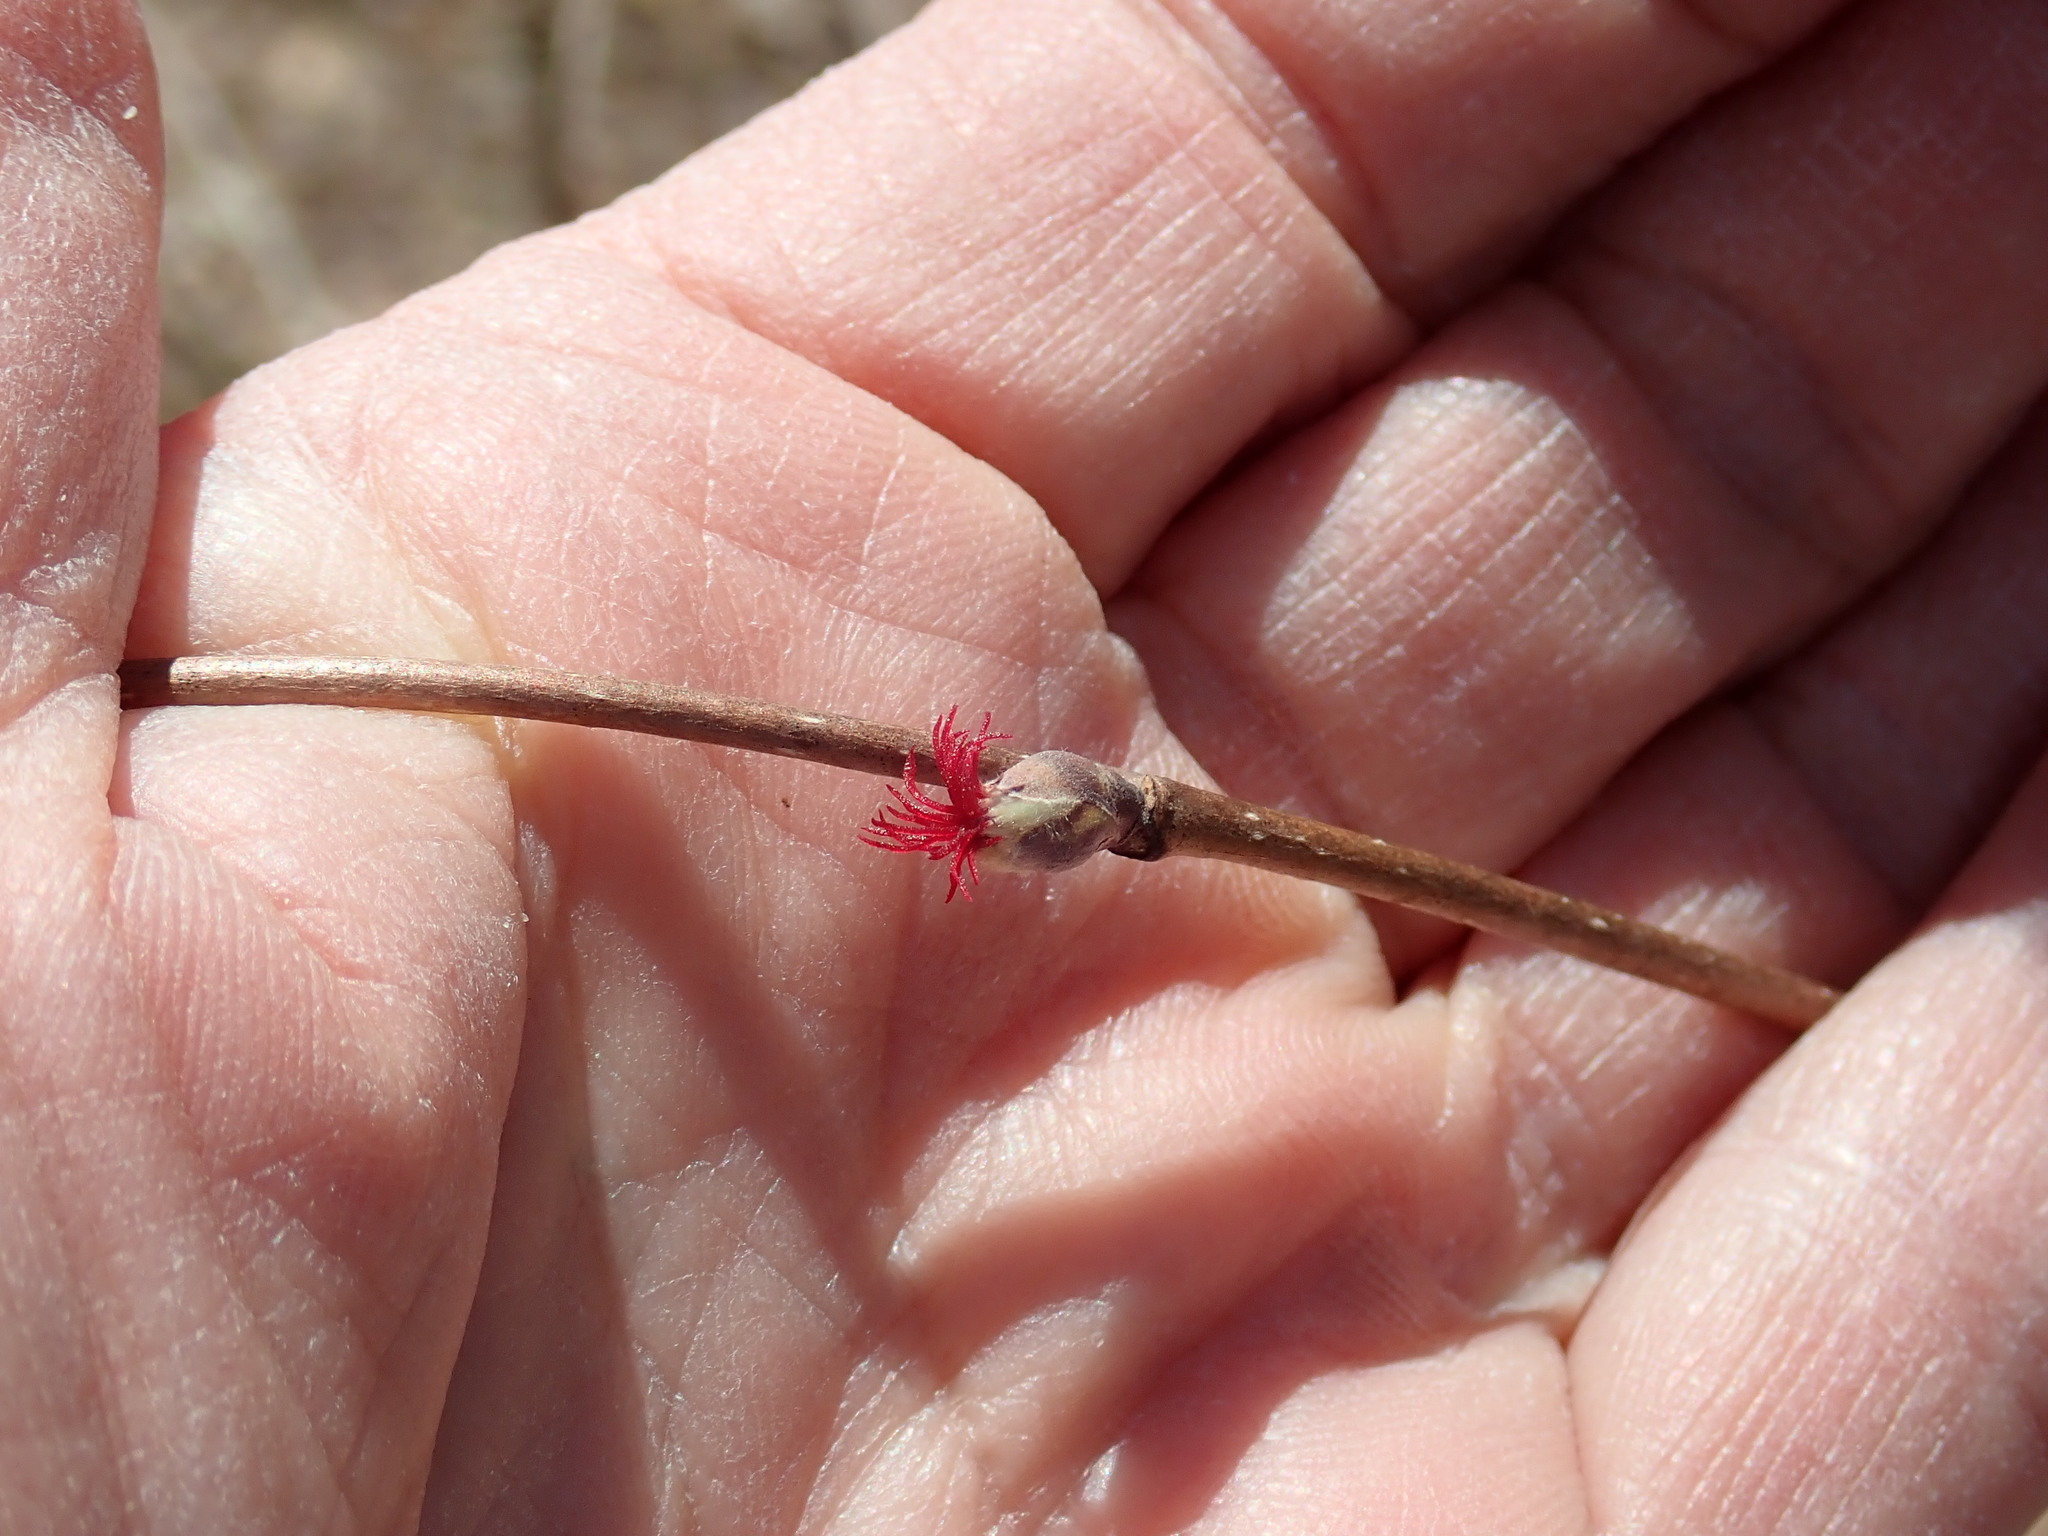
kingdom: Plantae
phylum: Tracheophyta
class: Magnoliopsida
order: Fagales
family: Betulaceae
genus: Corylus
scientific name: Corylus cornuta
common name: Beaked hazel
